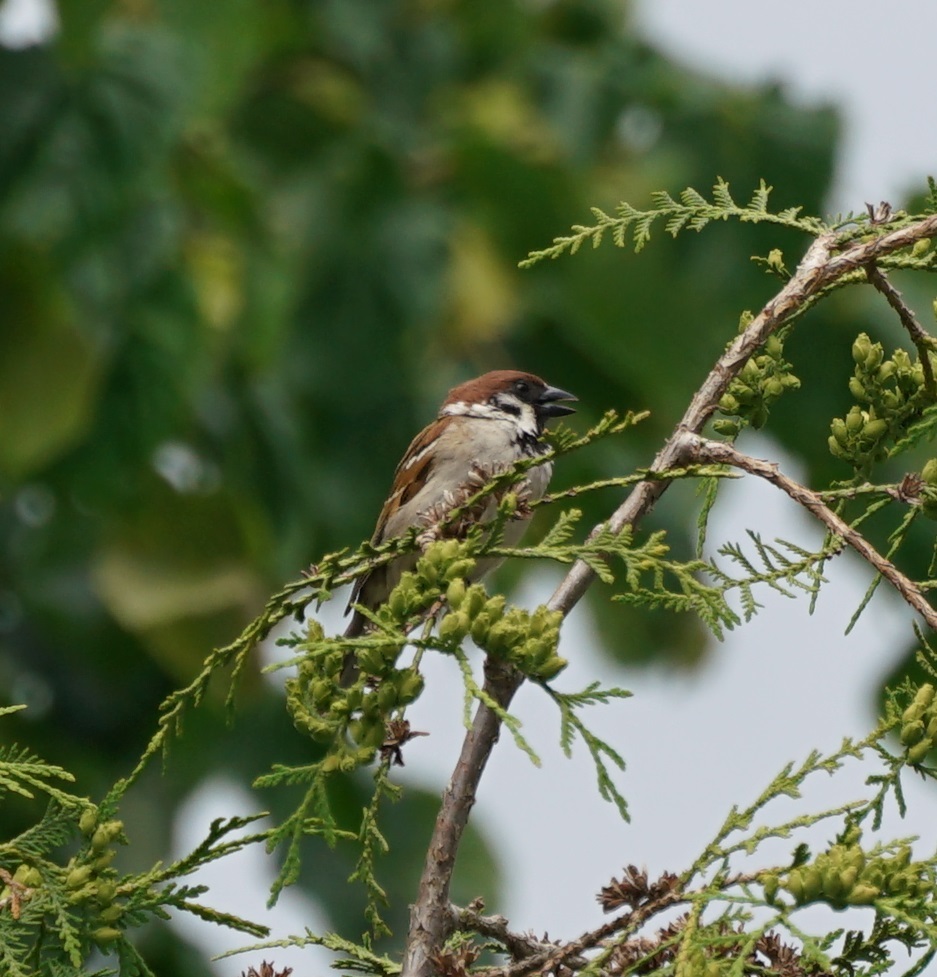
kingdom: Animalia
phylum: Chordata
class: Aves
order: Passeriformes
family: Passeridae
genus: Passer
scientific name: Passer montanus
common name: Eurasian tree sparrow
